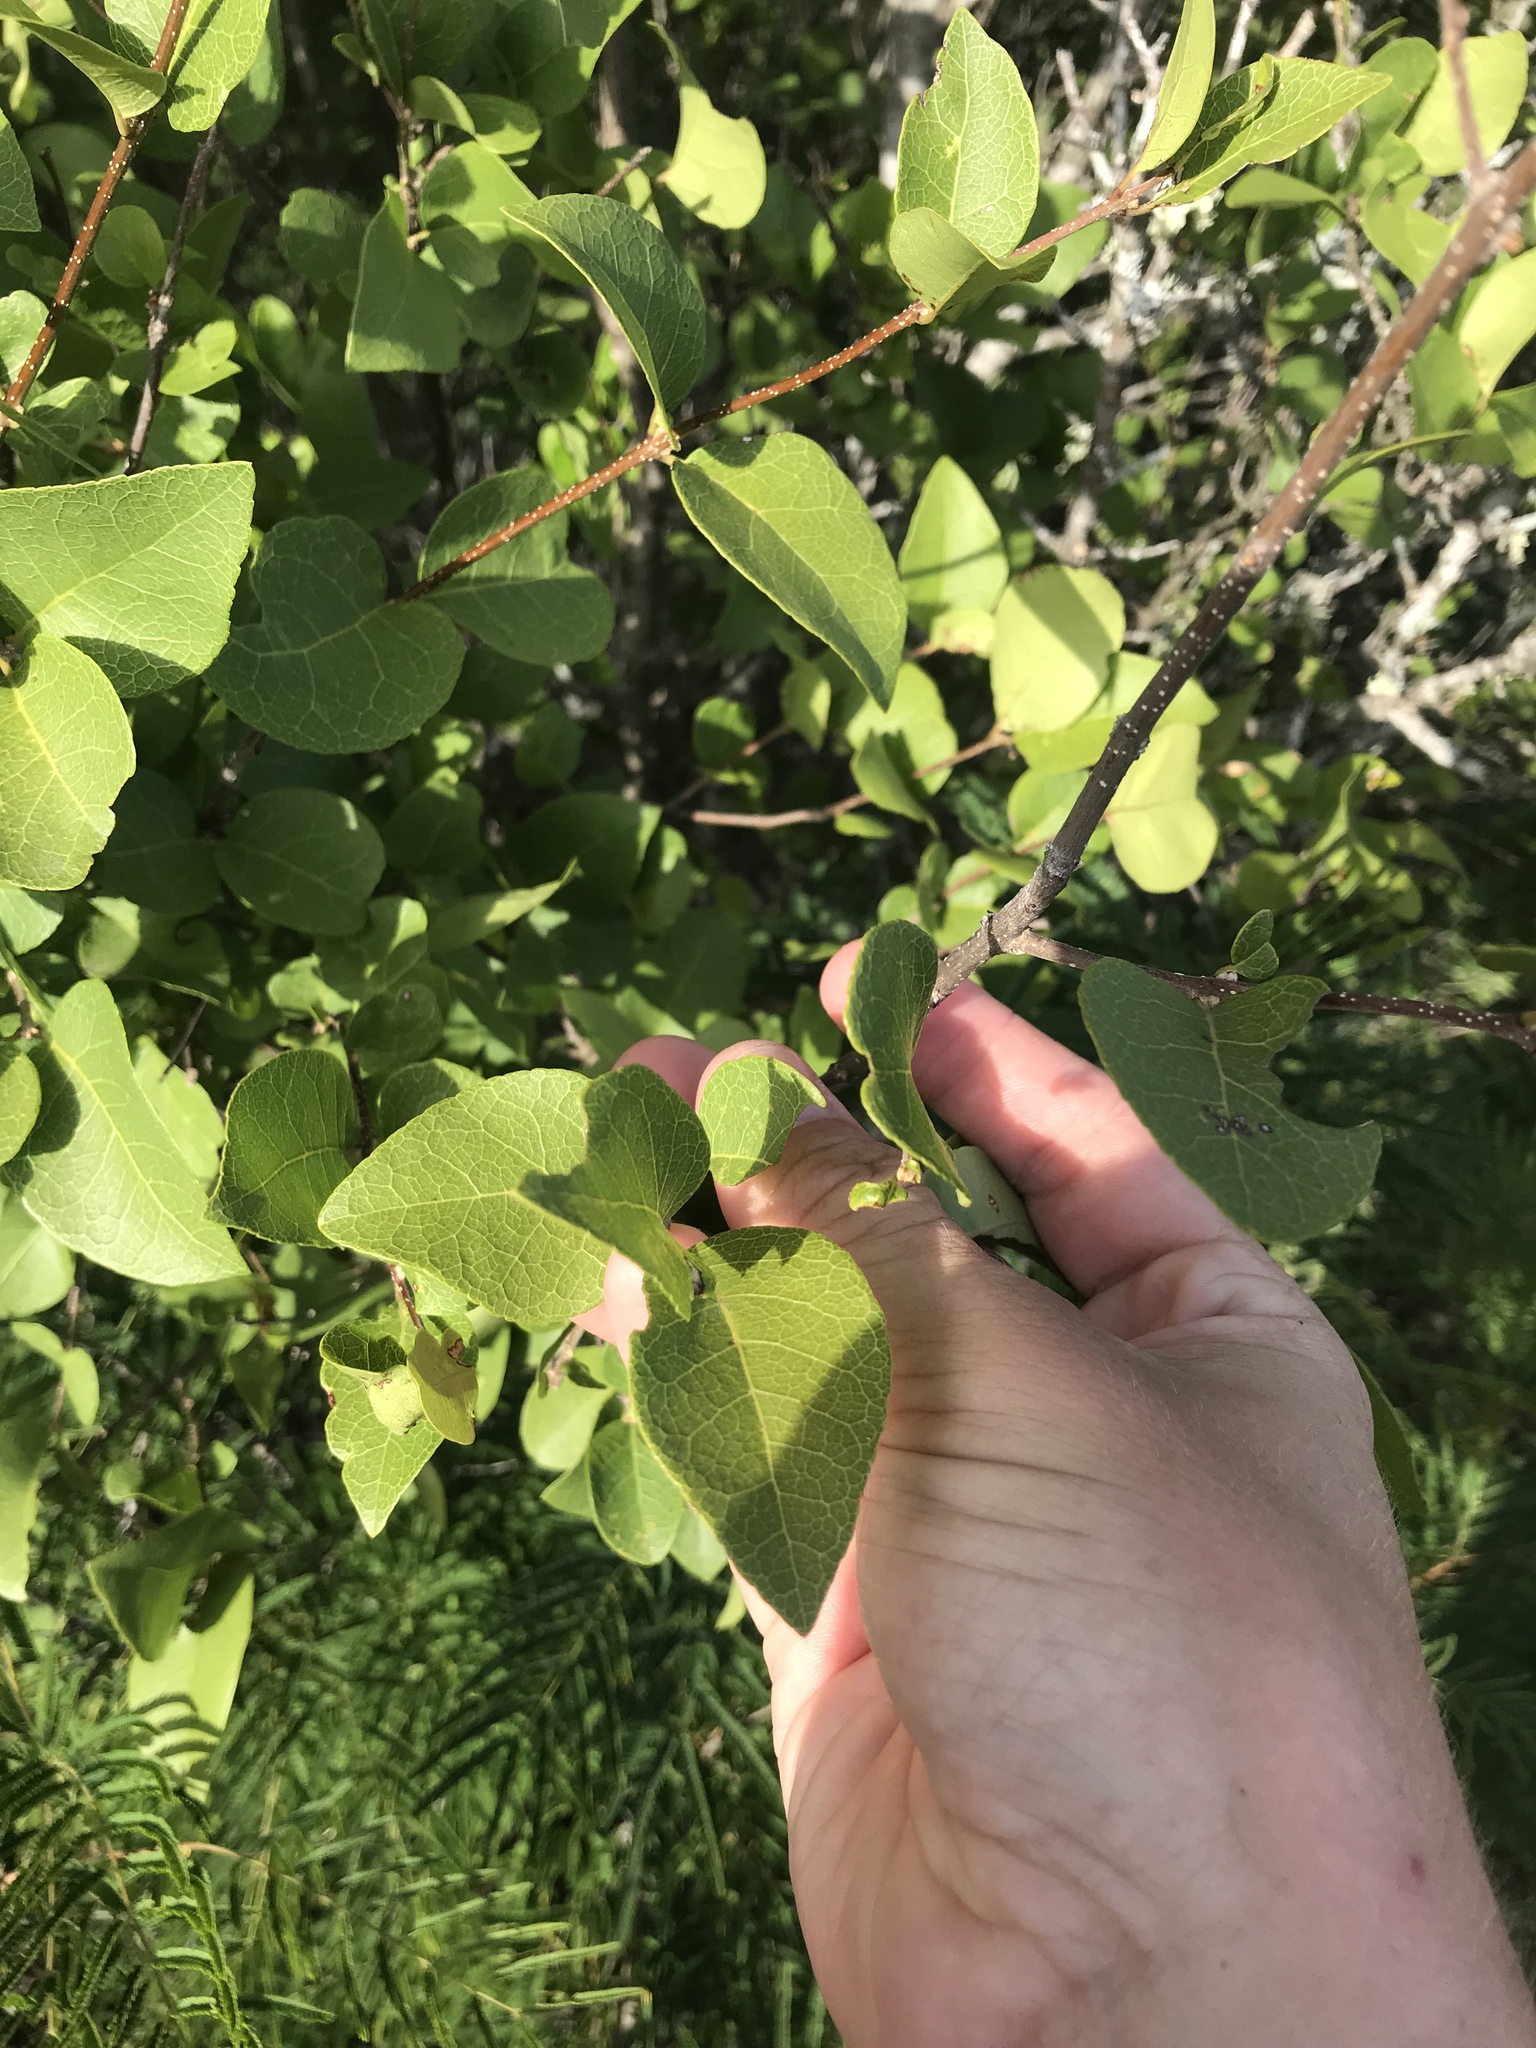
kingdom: Plantae
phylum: Tracheophyta
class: Magnoliopsida
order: Lamiales
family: Oleaceae
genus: Forestiera
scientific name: Forestiera reticulata
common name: Netleaf swamp-privet
